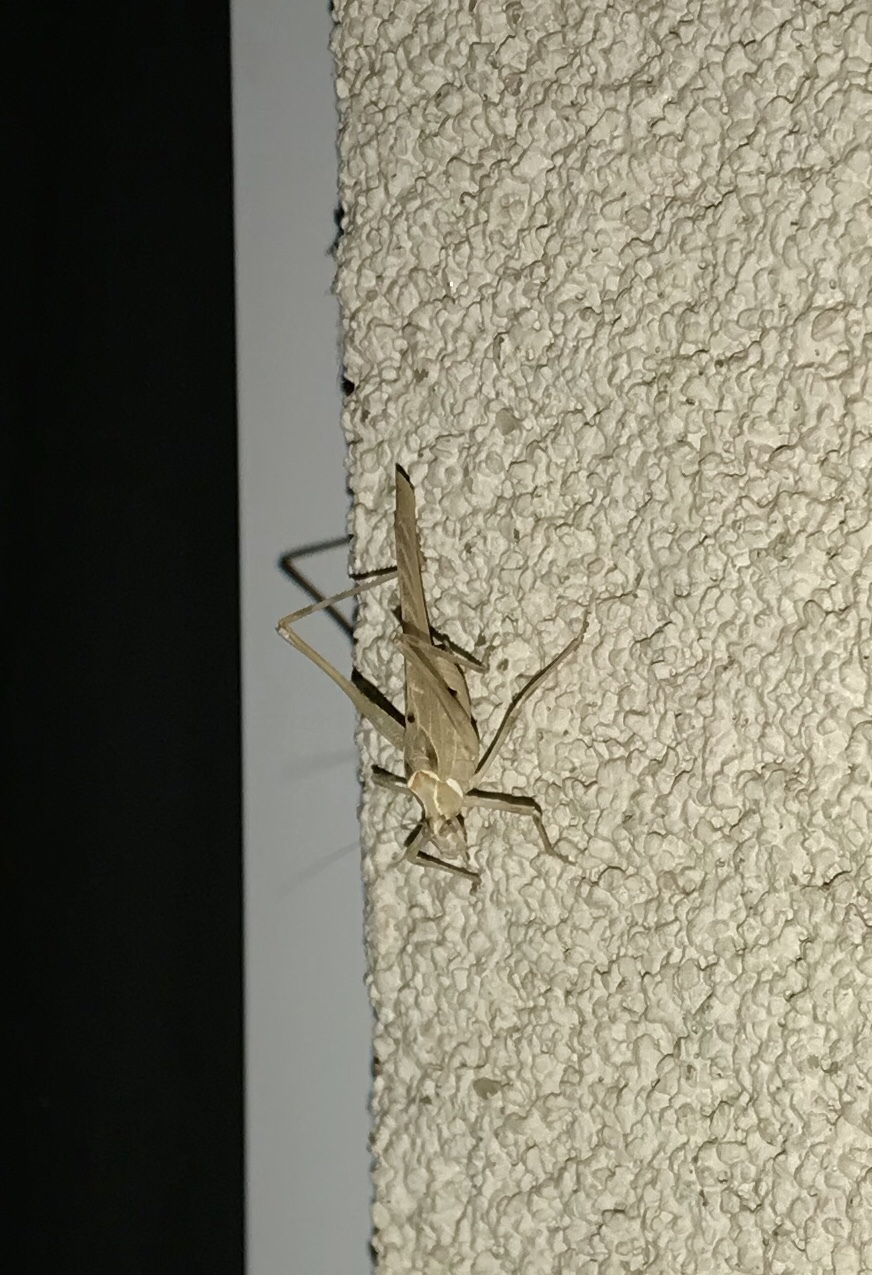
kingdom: Animalia
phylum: Arthropoda
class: Insecta
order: Orthoptera
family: Tettigoniidae
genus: Insara
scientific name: Insara elegans
